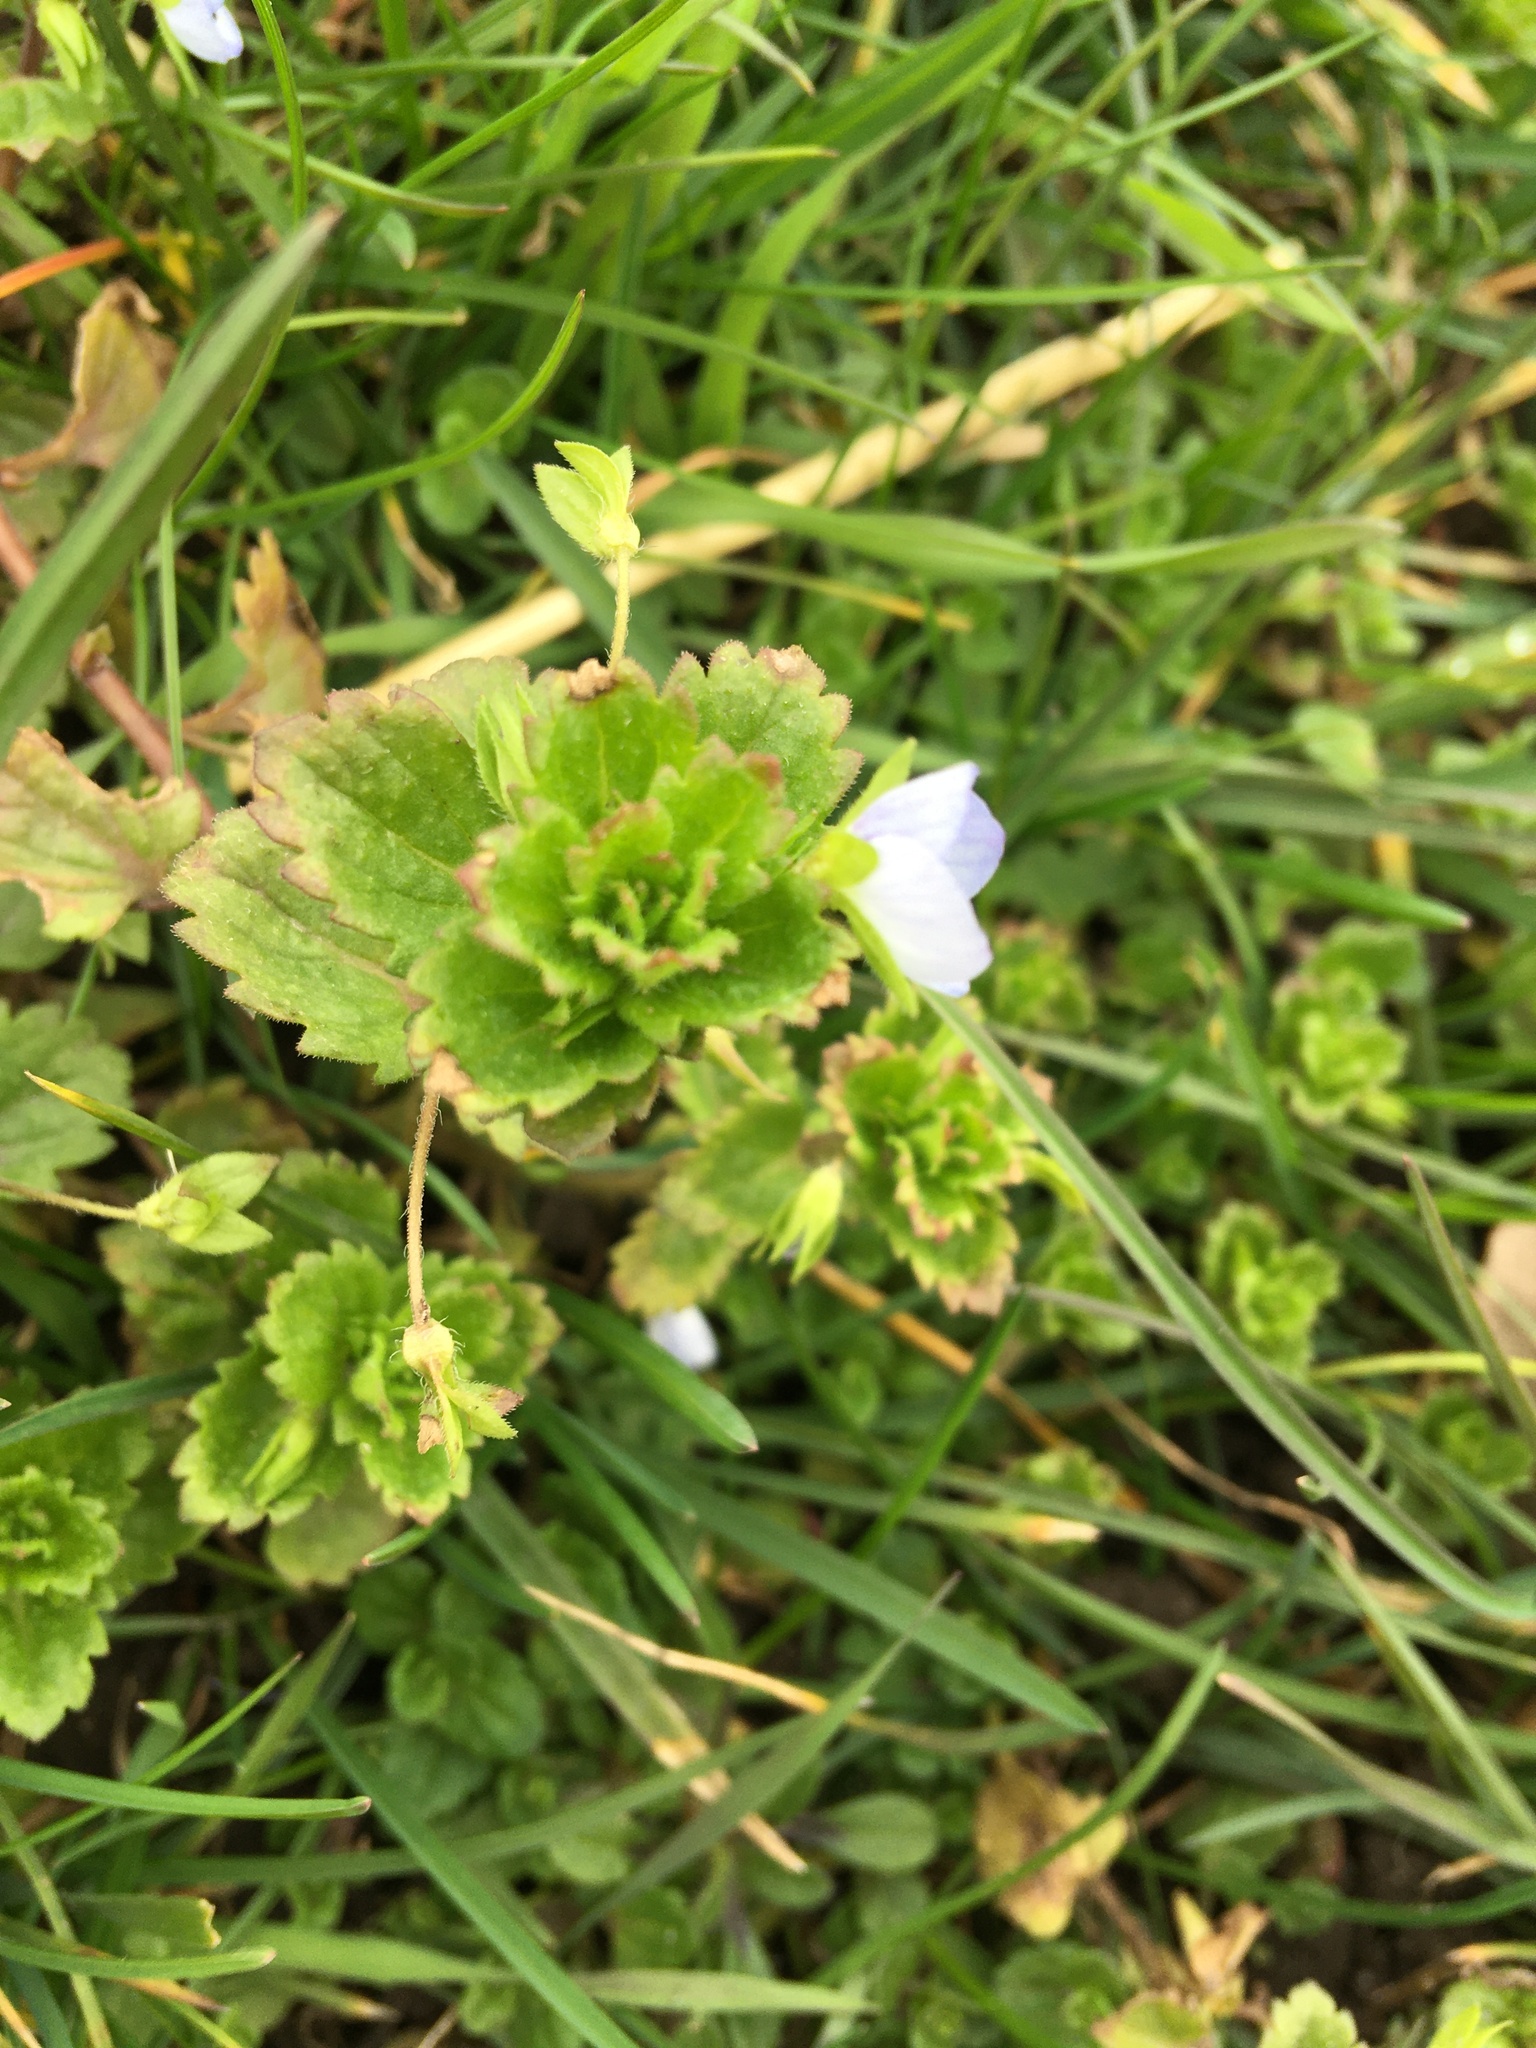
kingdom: Plantae
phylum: Tracheophyta
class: Magnoliopsida
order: Lamiales
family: Plantaginaceae
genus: Veronica
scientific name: Veronica persica
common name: Common field-speedwell
